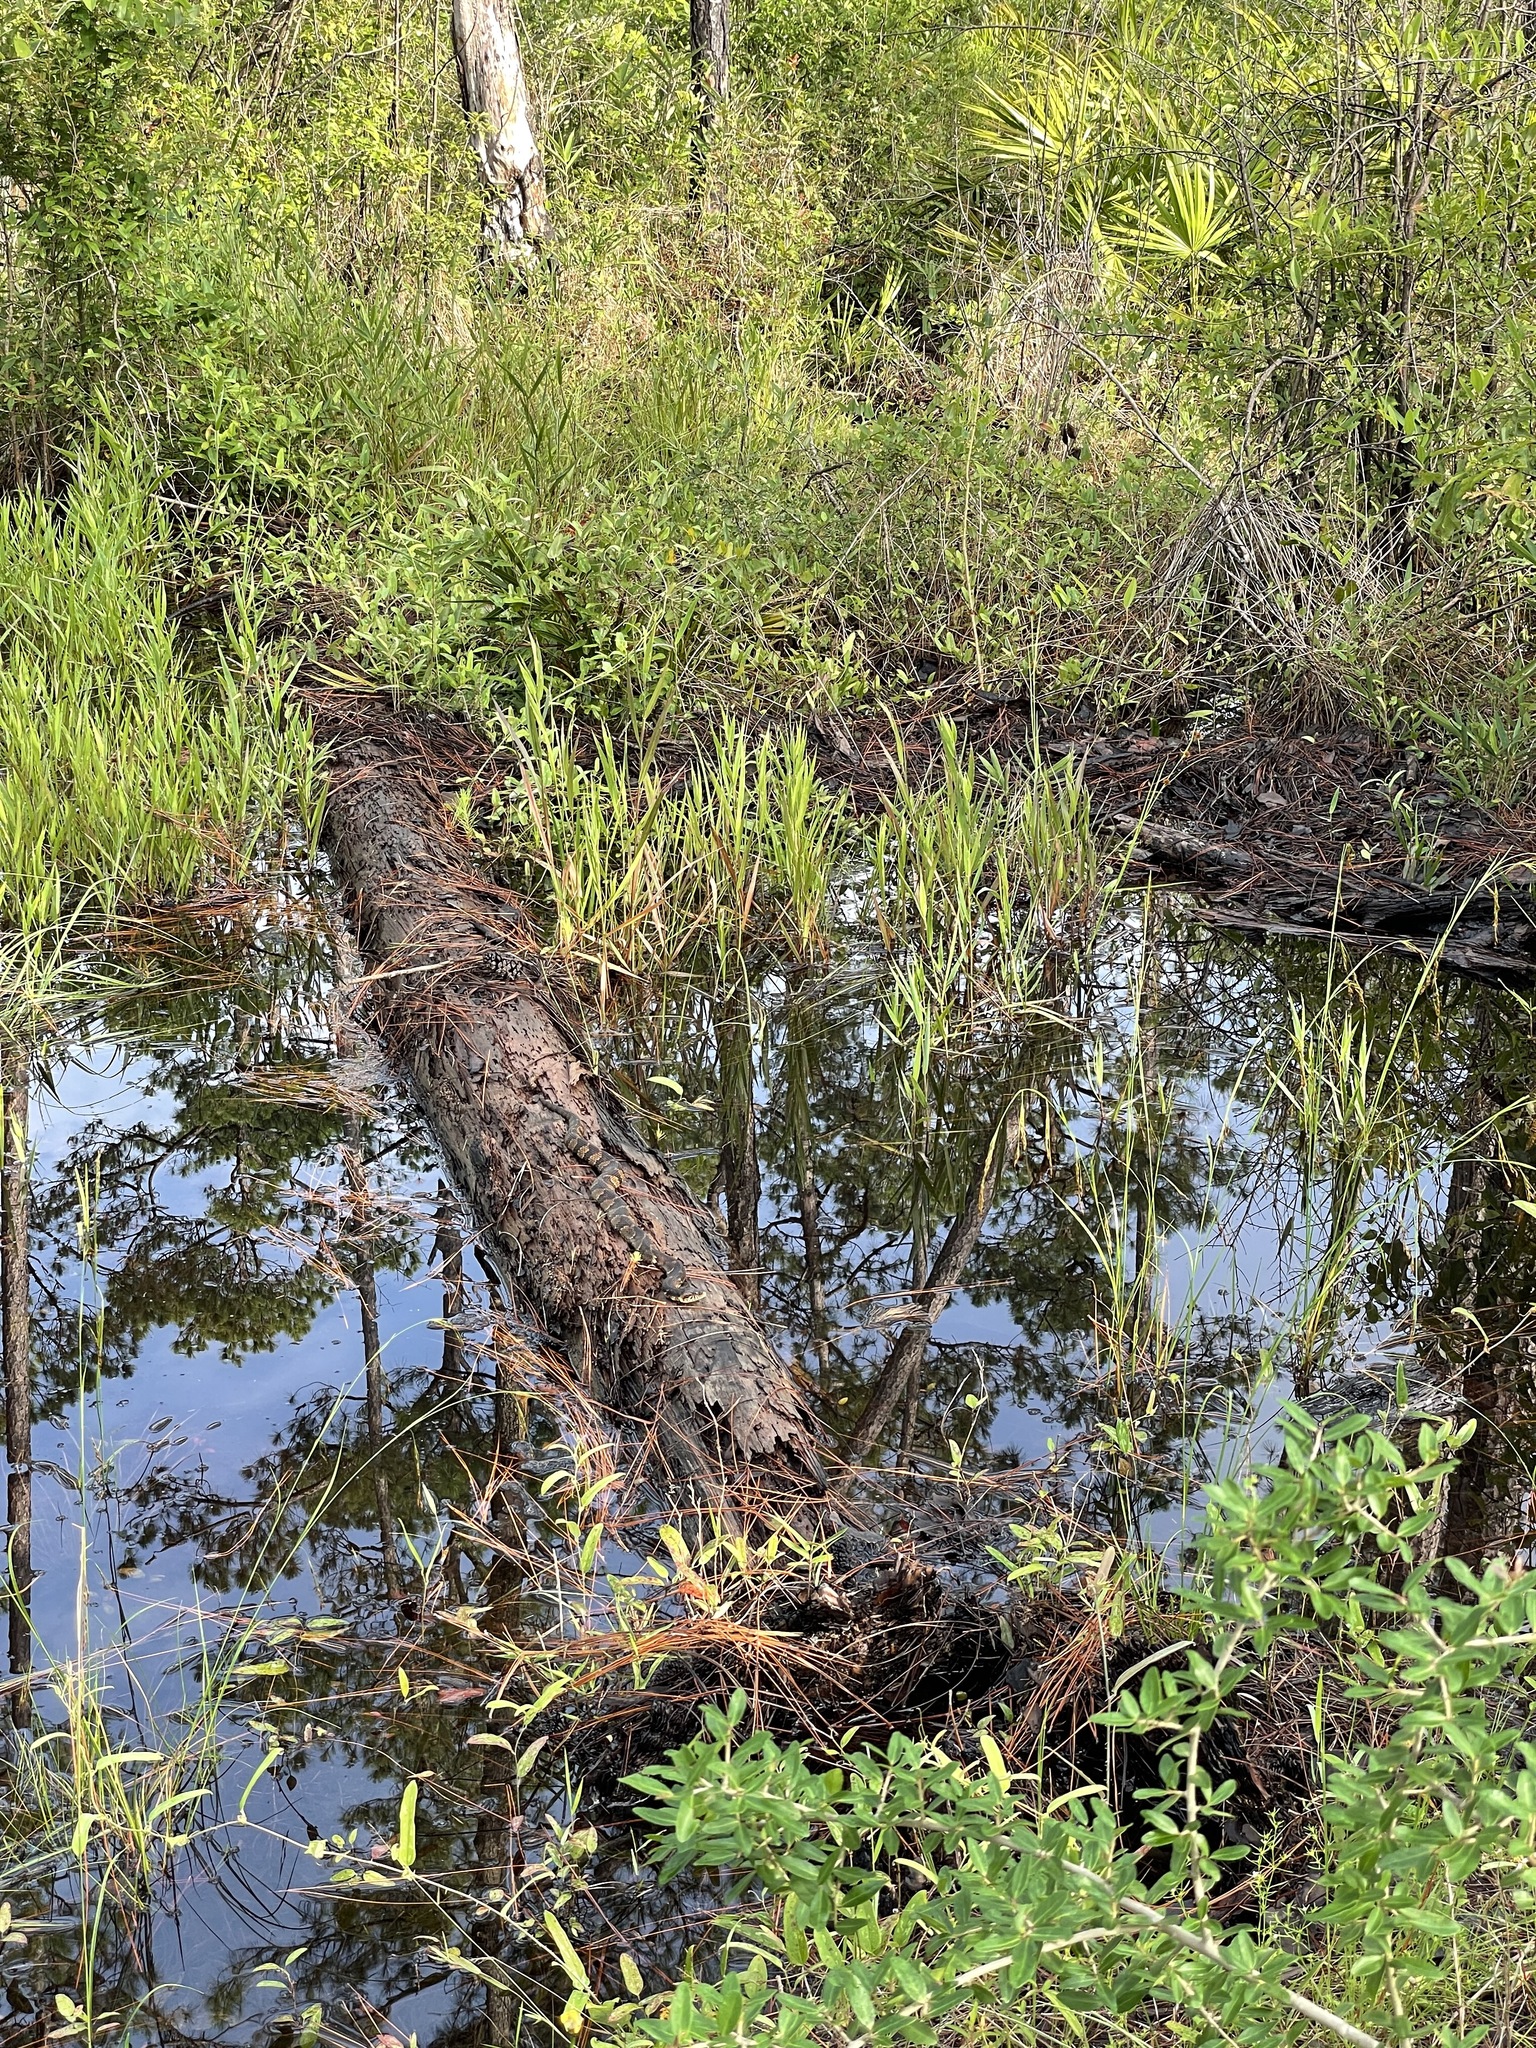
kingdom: Animalia
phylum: Chordata
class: Squamata
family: Colubridae
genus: Nerodia
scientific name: Nerodia fasciata
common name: Southern water snake
